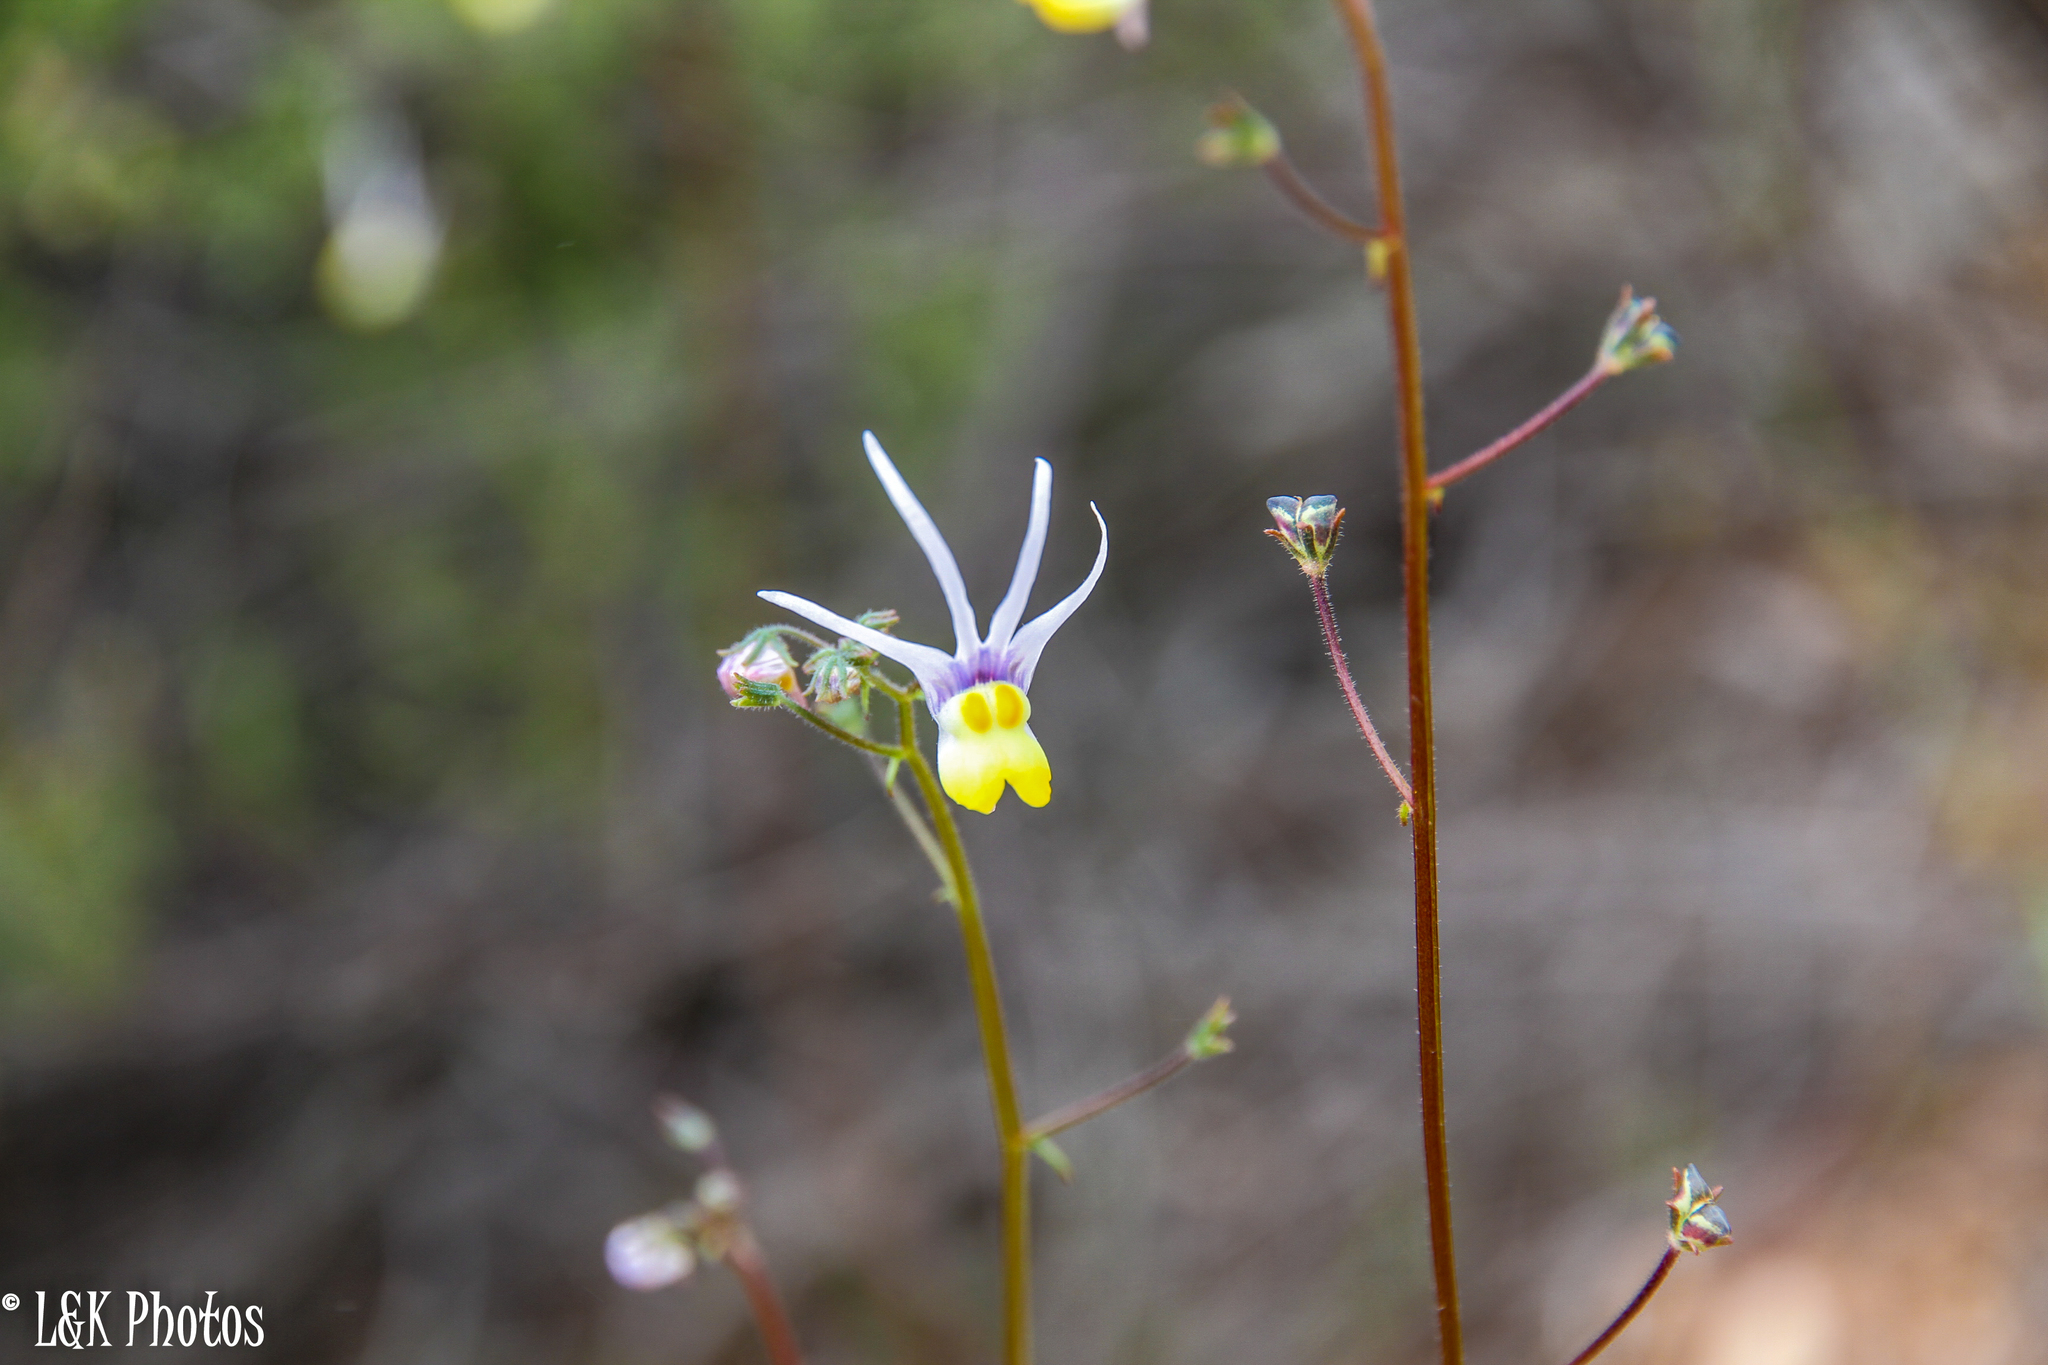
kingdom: Plantae
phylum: Tracheophyta
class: Magnoliopsida
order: Lamiales
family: Scrophulariaceae
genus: Nemesia
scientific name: Nemesia cheiranthus
